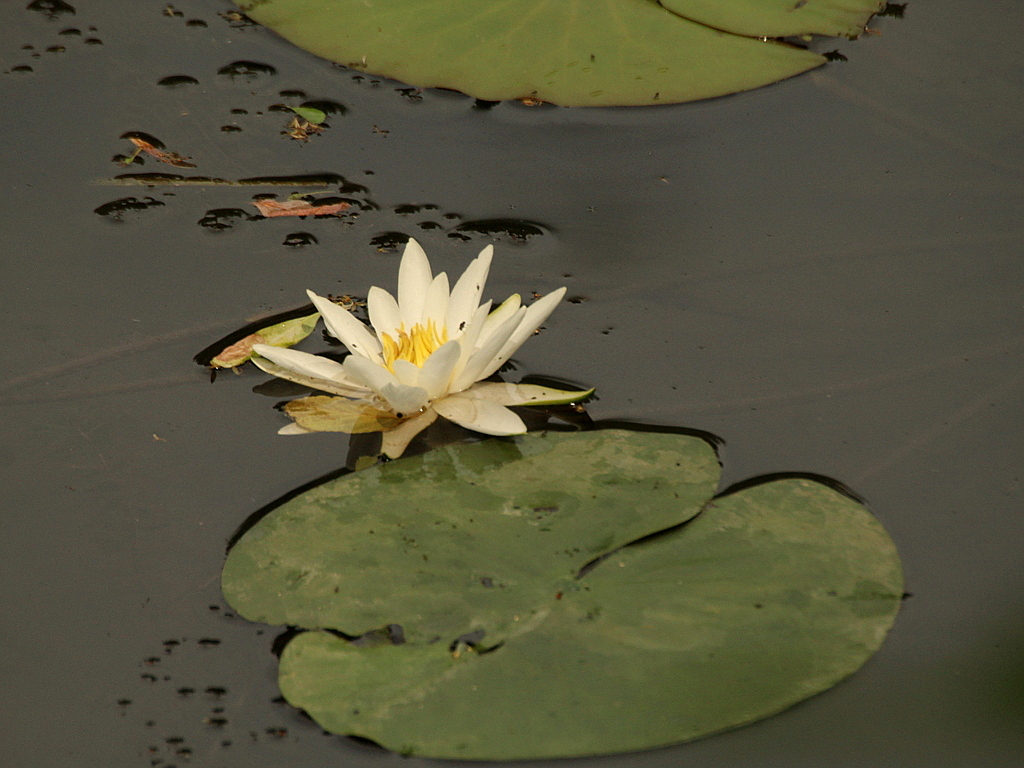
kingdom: Plantae
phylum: Tracheophyta
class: Magnoliopsida
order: Nymphaeales
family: Nymphaeaceae
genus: Nymphaea
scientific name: Nymphaea candida
